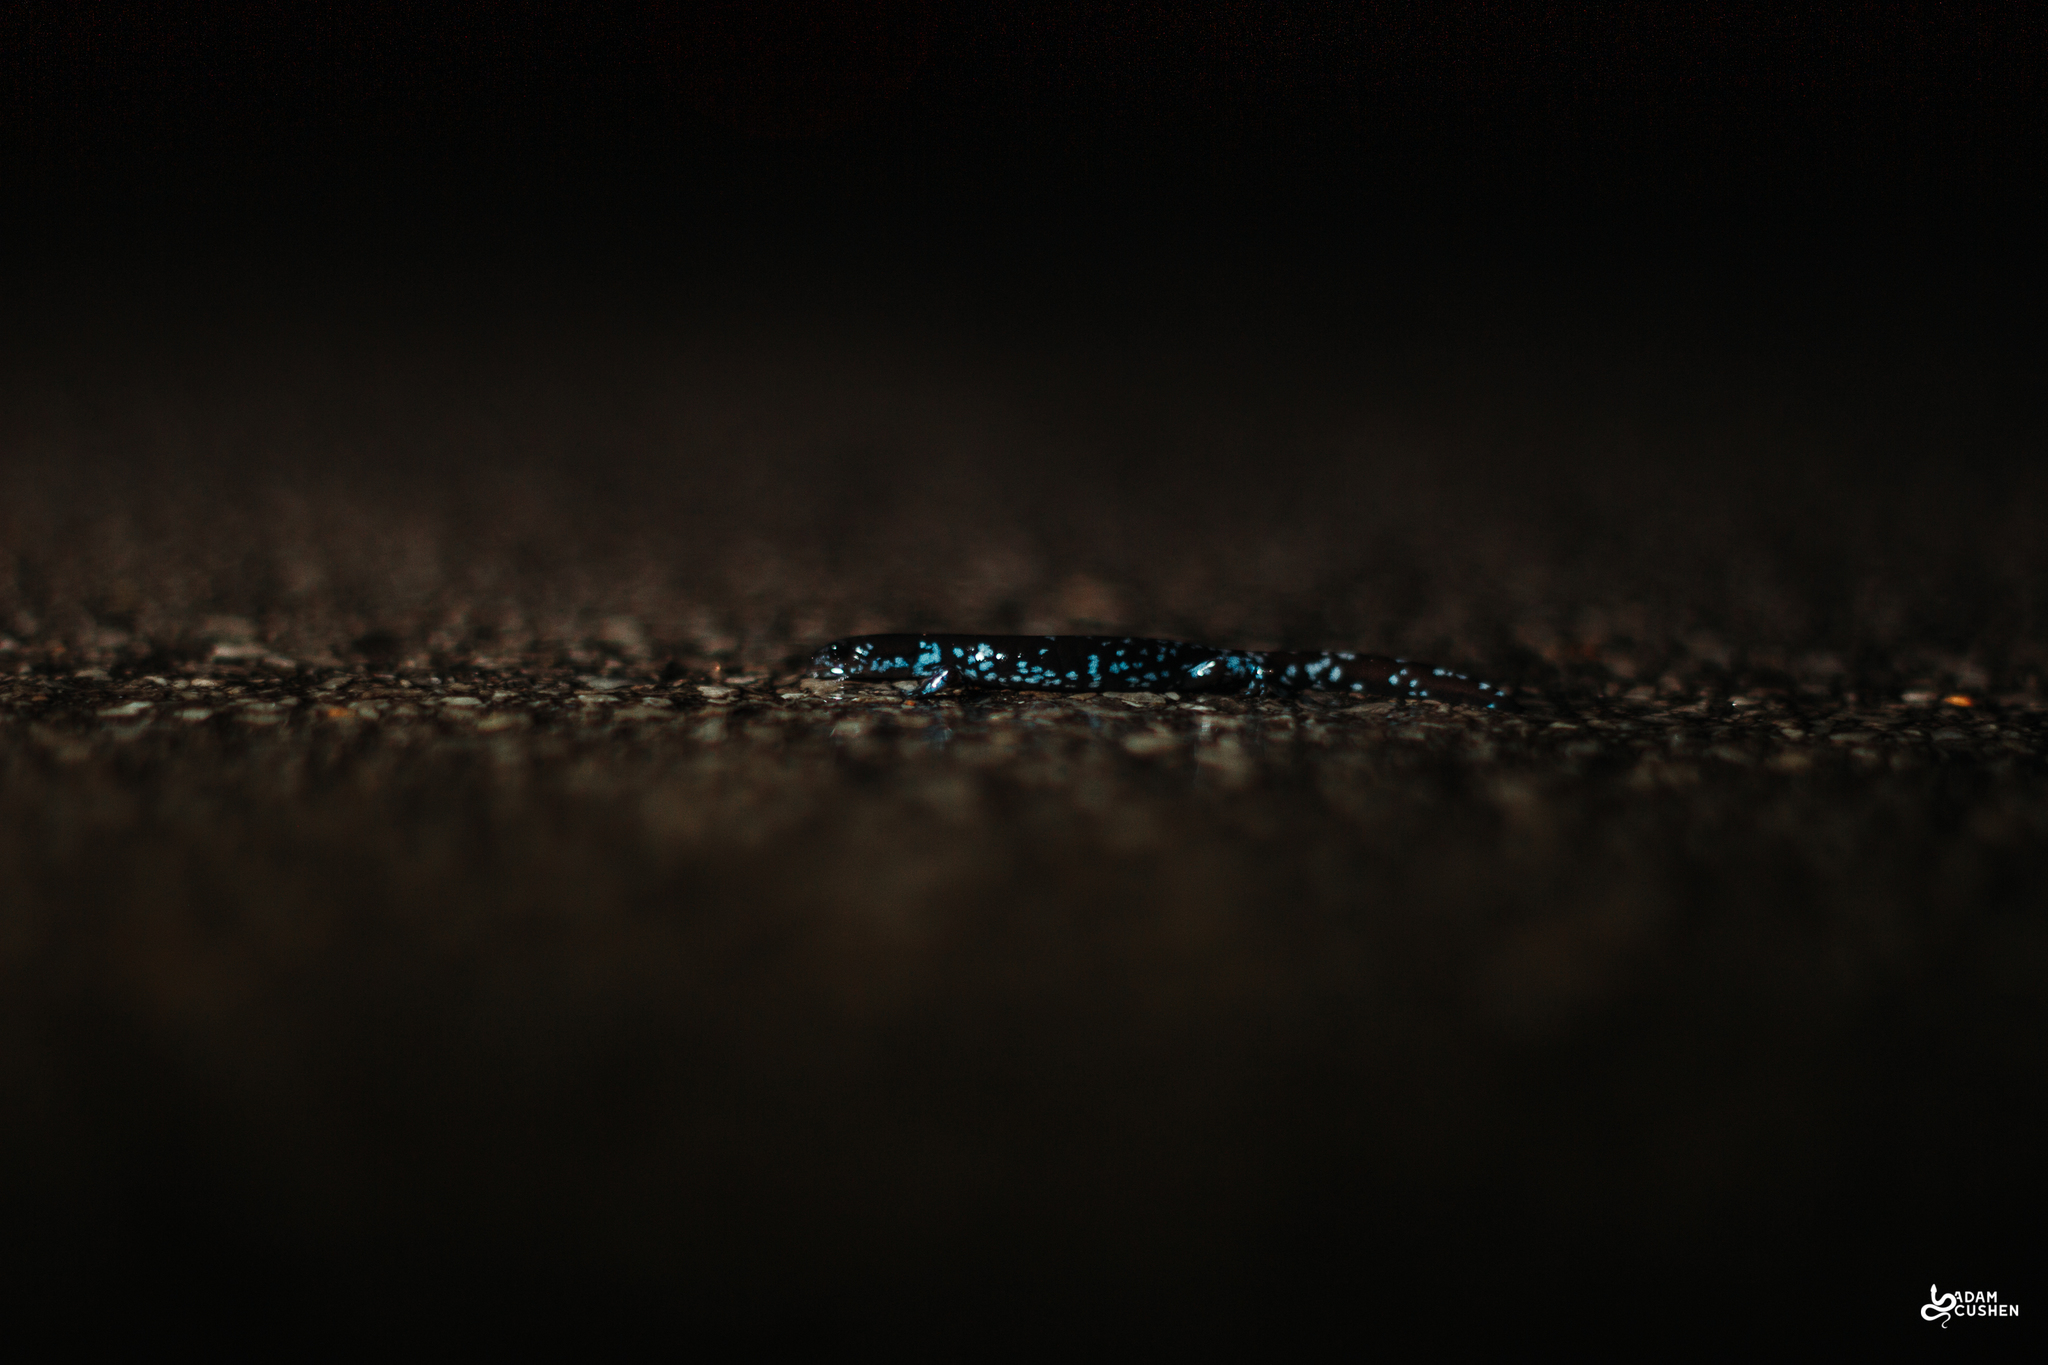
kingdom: Animalia
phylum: Chordata
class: Amphibia
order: Caudata
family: Ambystomatidae
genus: Ambystoma
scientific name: Ambystoma laterale
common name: Blue-spotted salamander
